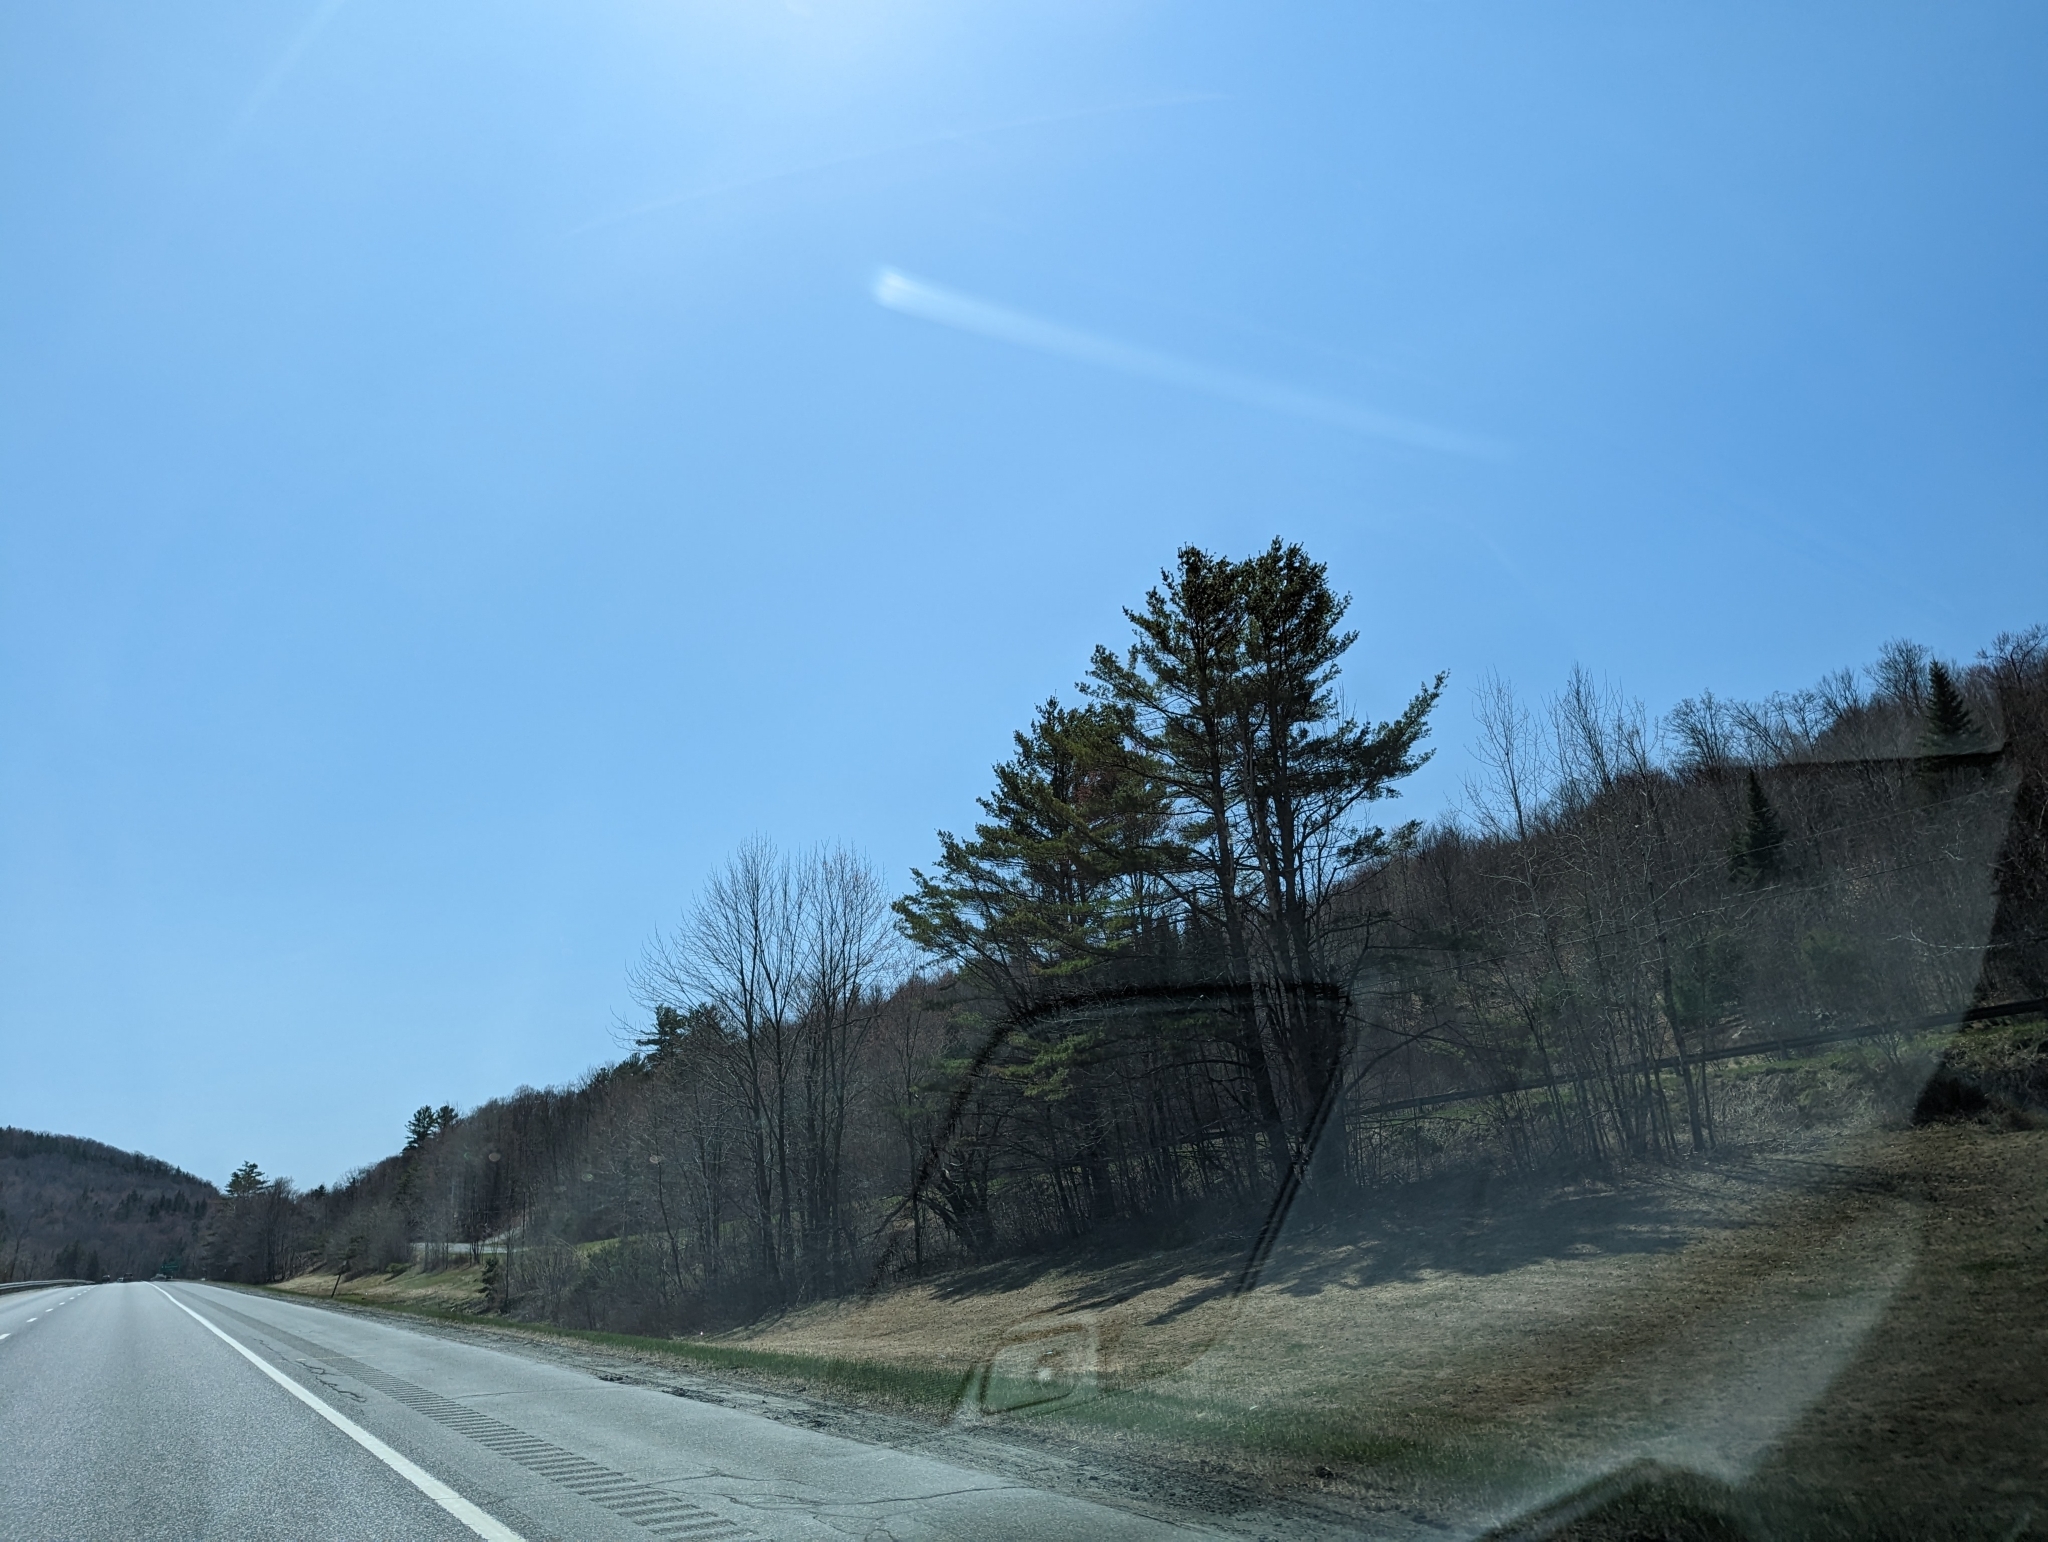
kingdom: Plantae
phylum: Tracheophyta
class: Pinopsida
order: Pinales
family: Pinaceae
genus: Pinus
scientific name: Pinus strobus
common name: Weymouth pine
